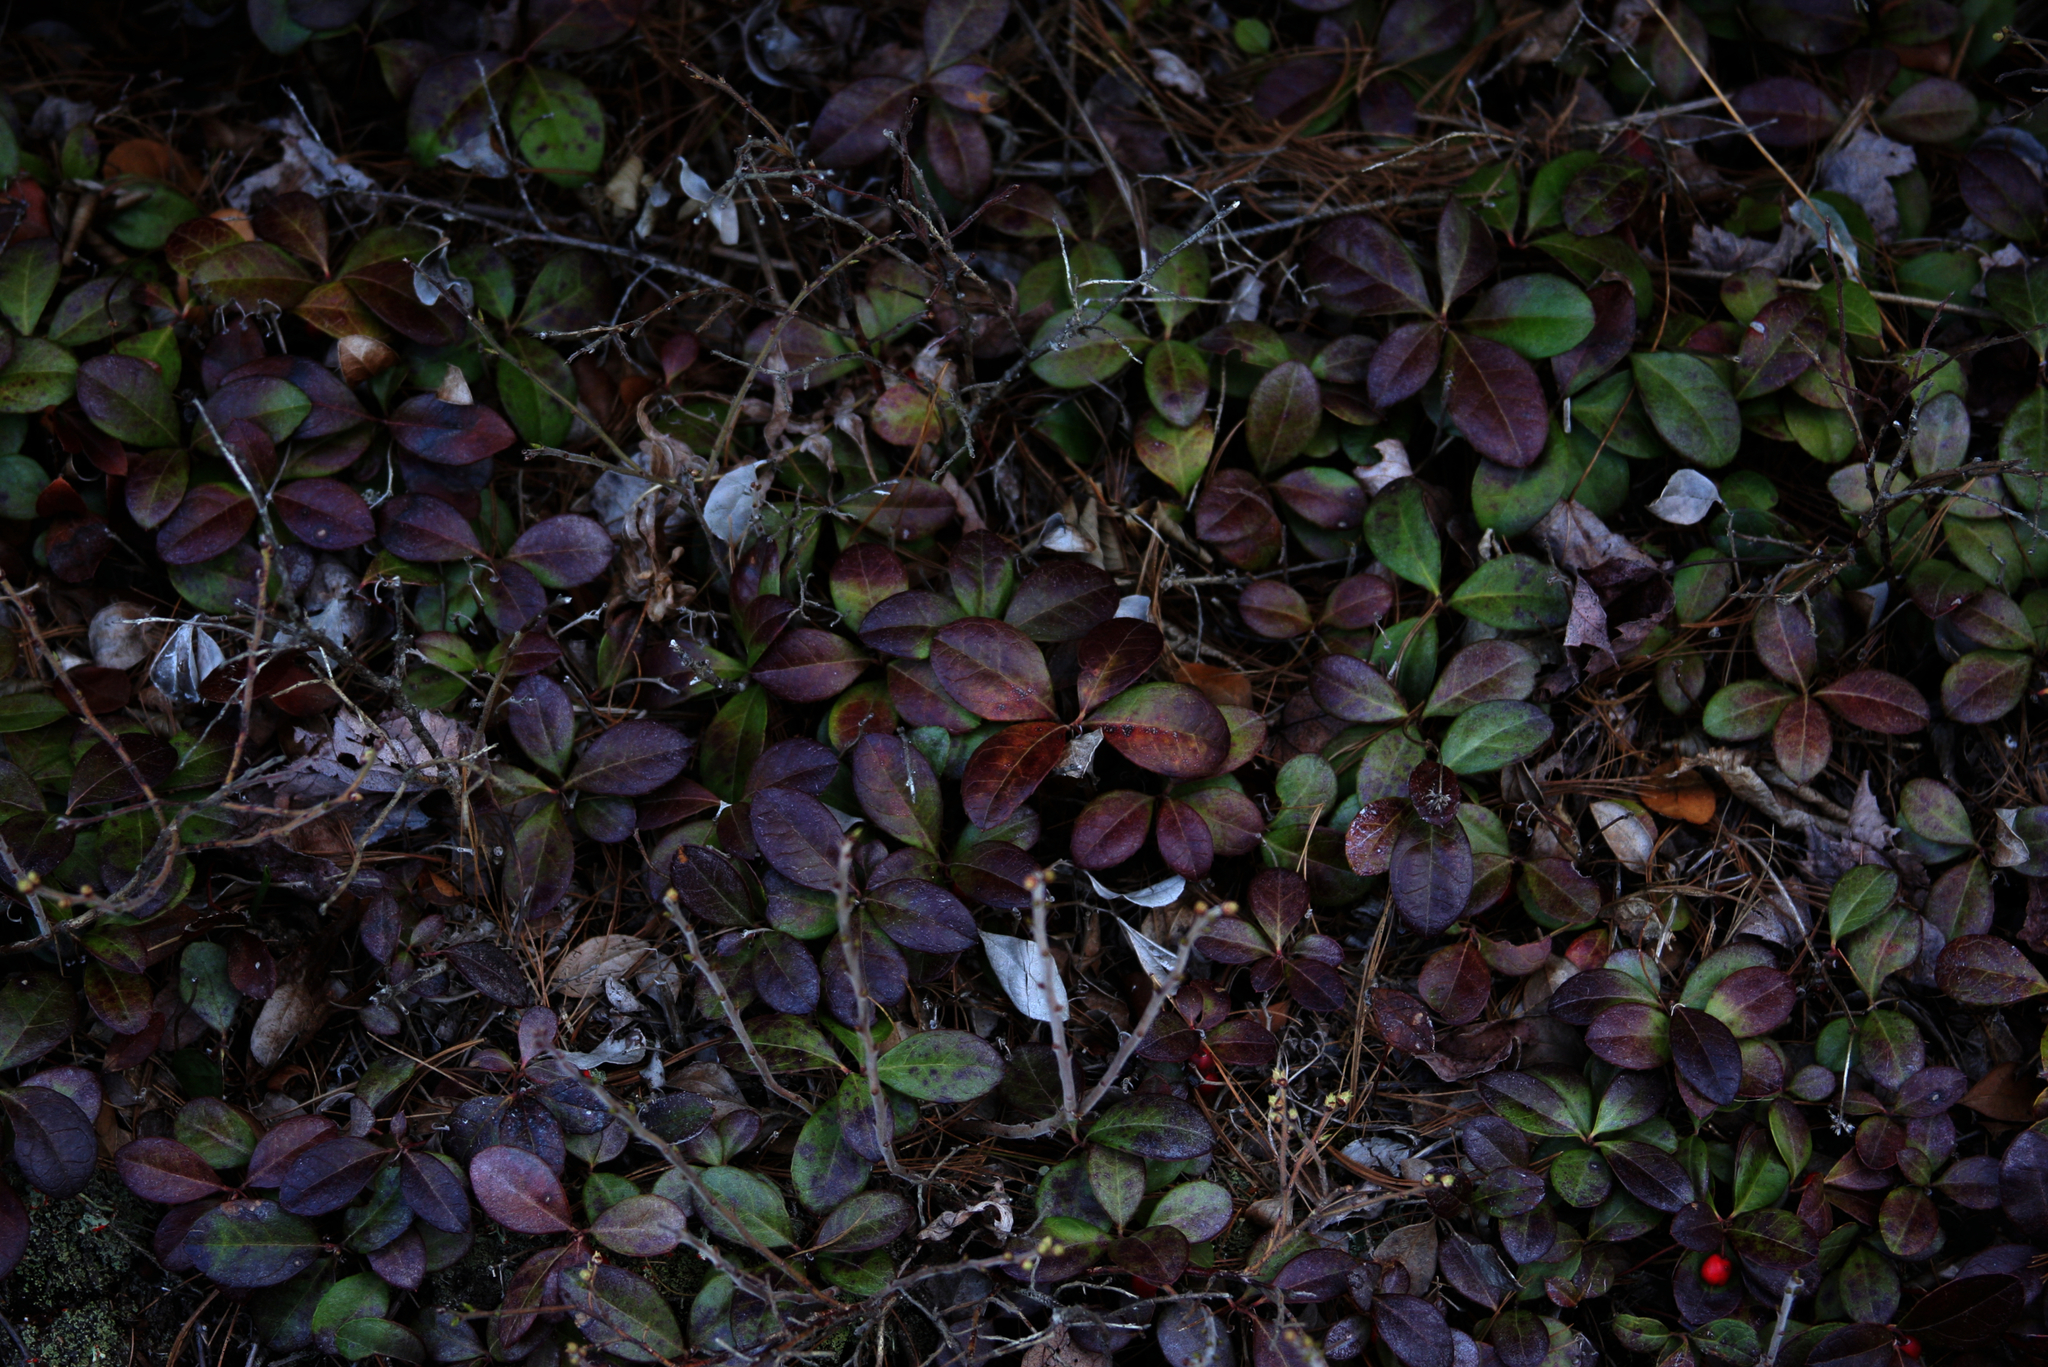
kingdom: Plantae
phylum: Tracheophyta
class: Magnoliopsida
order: Ericales
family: Ericaceae
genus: Gaultheria
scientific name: Gaultheria procumbens
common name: Checkerberry
